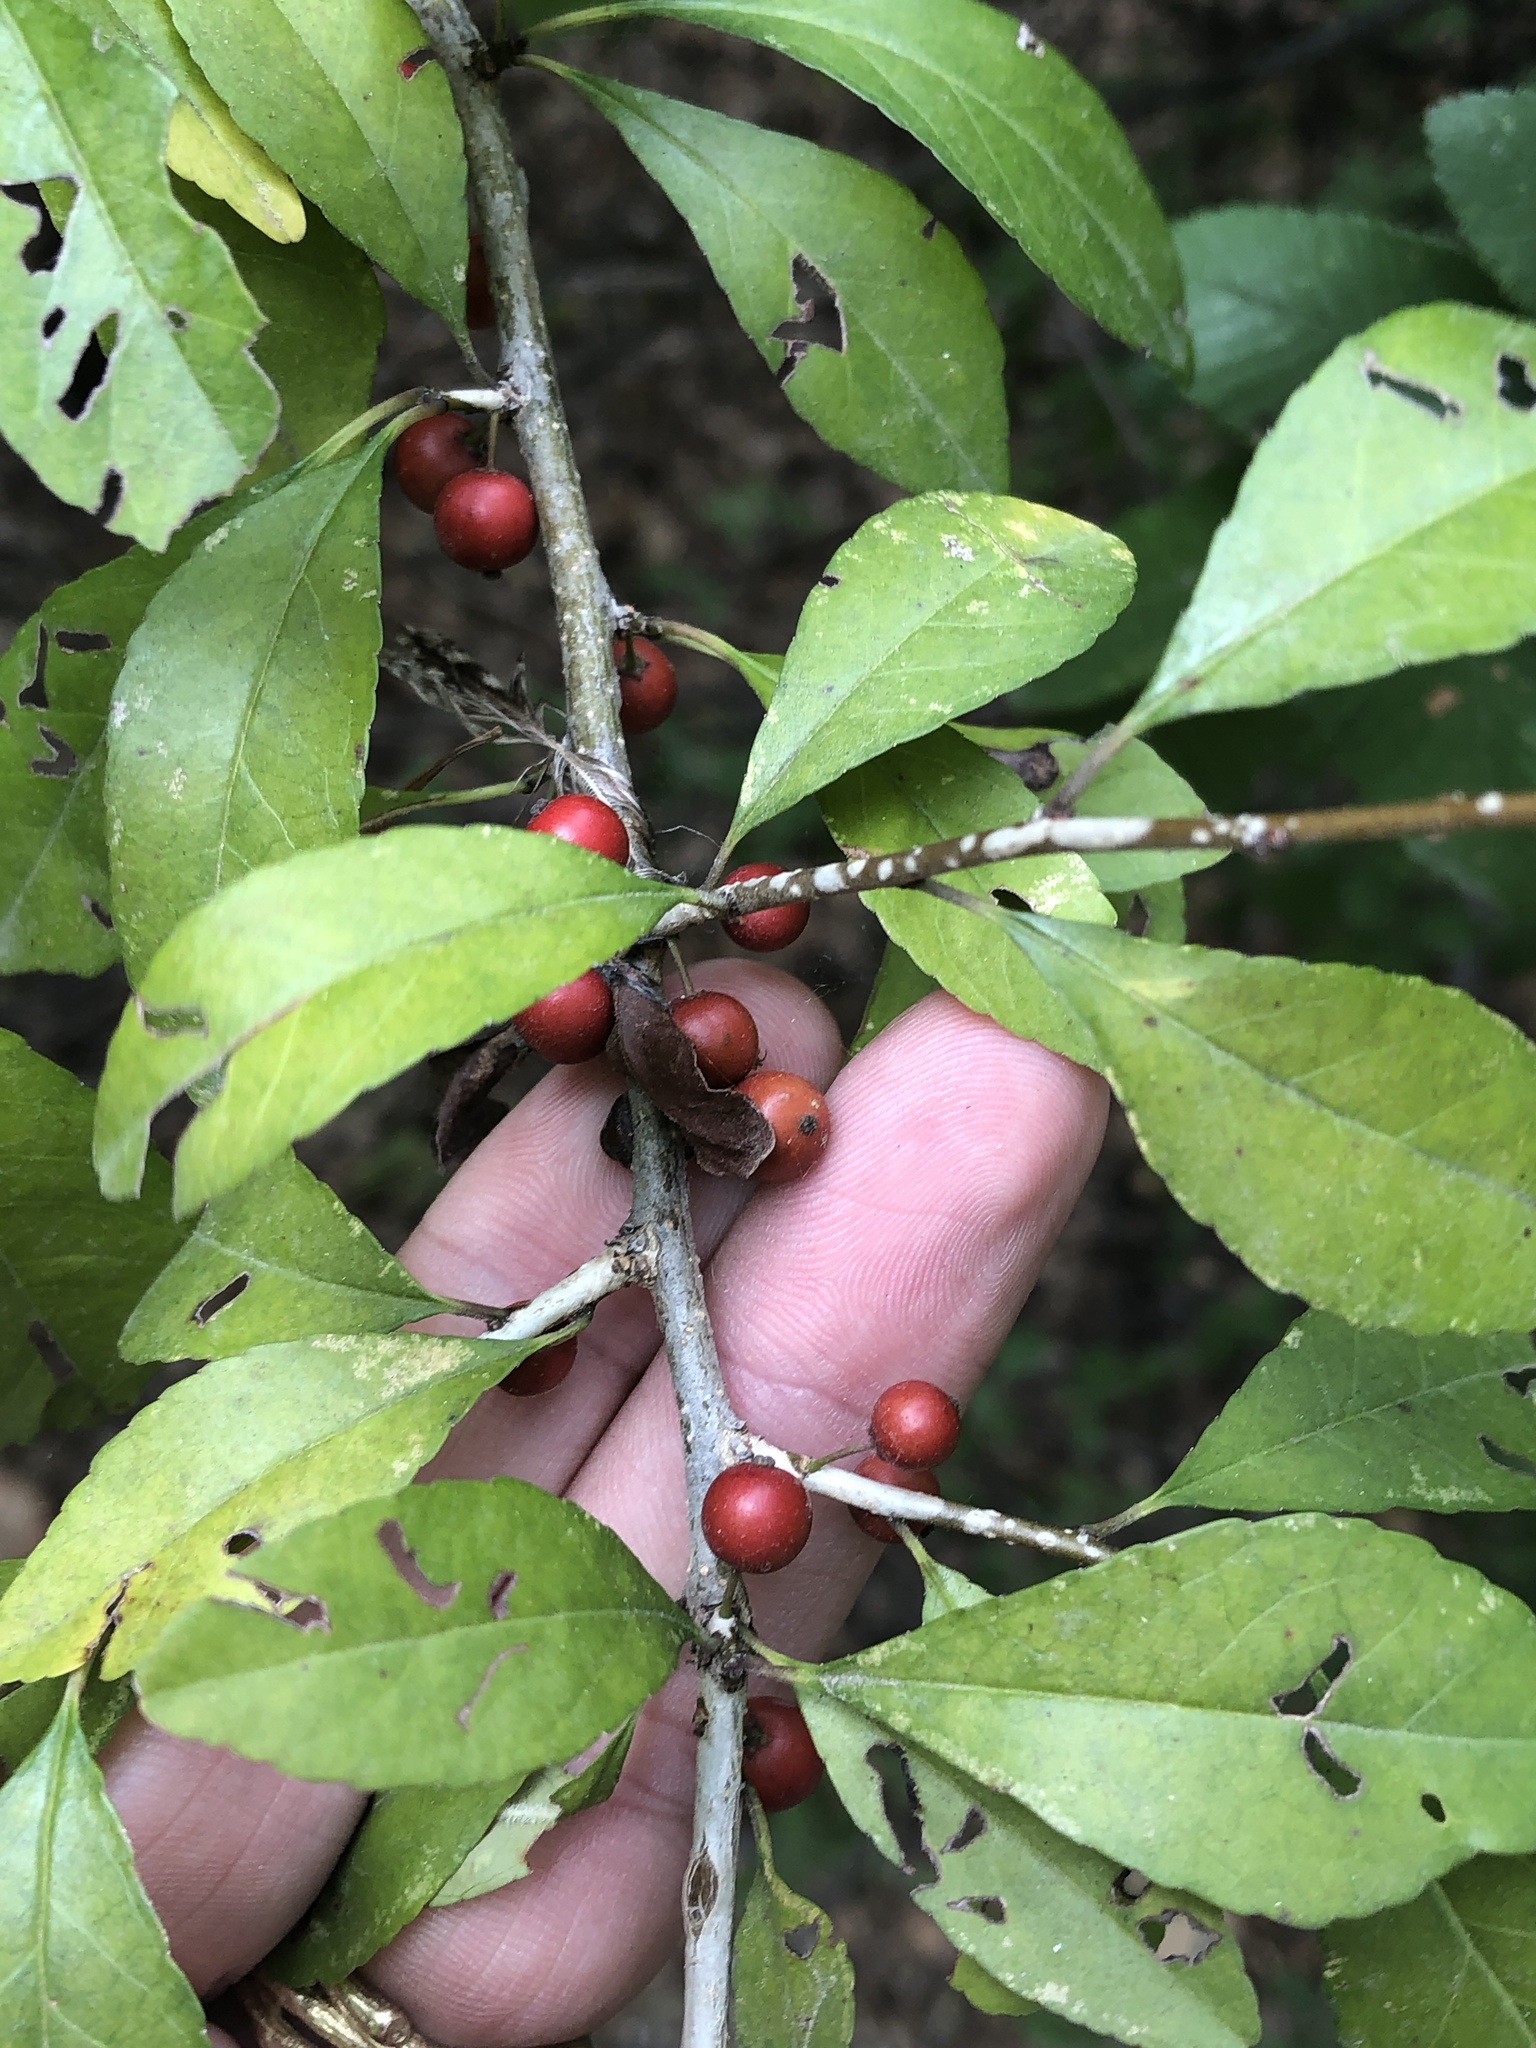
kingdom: Plantae
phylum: Tracheophyta
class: Magnoliopsida
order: Aquifoliales
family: Aquifoliaceae
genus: Ilex
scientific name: Ilex decidua
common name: Possum-haw
